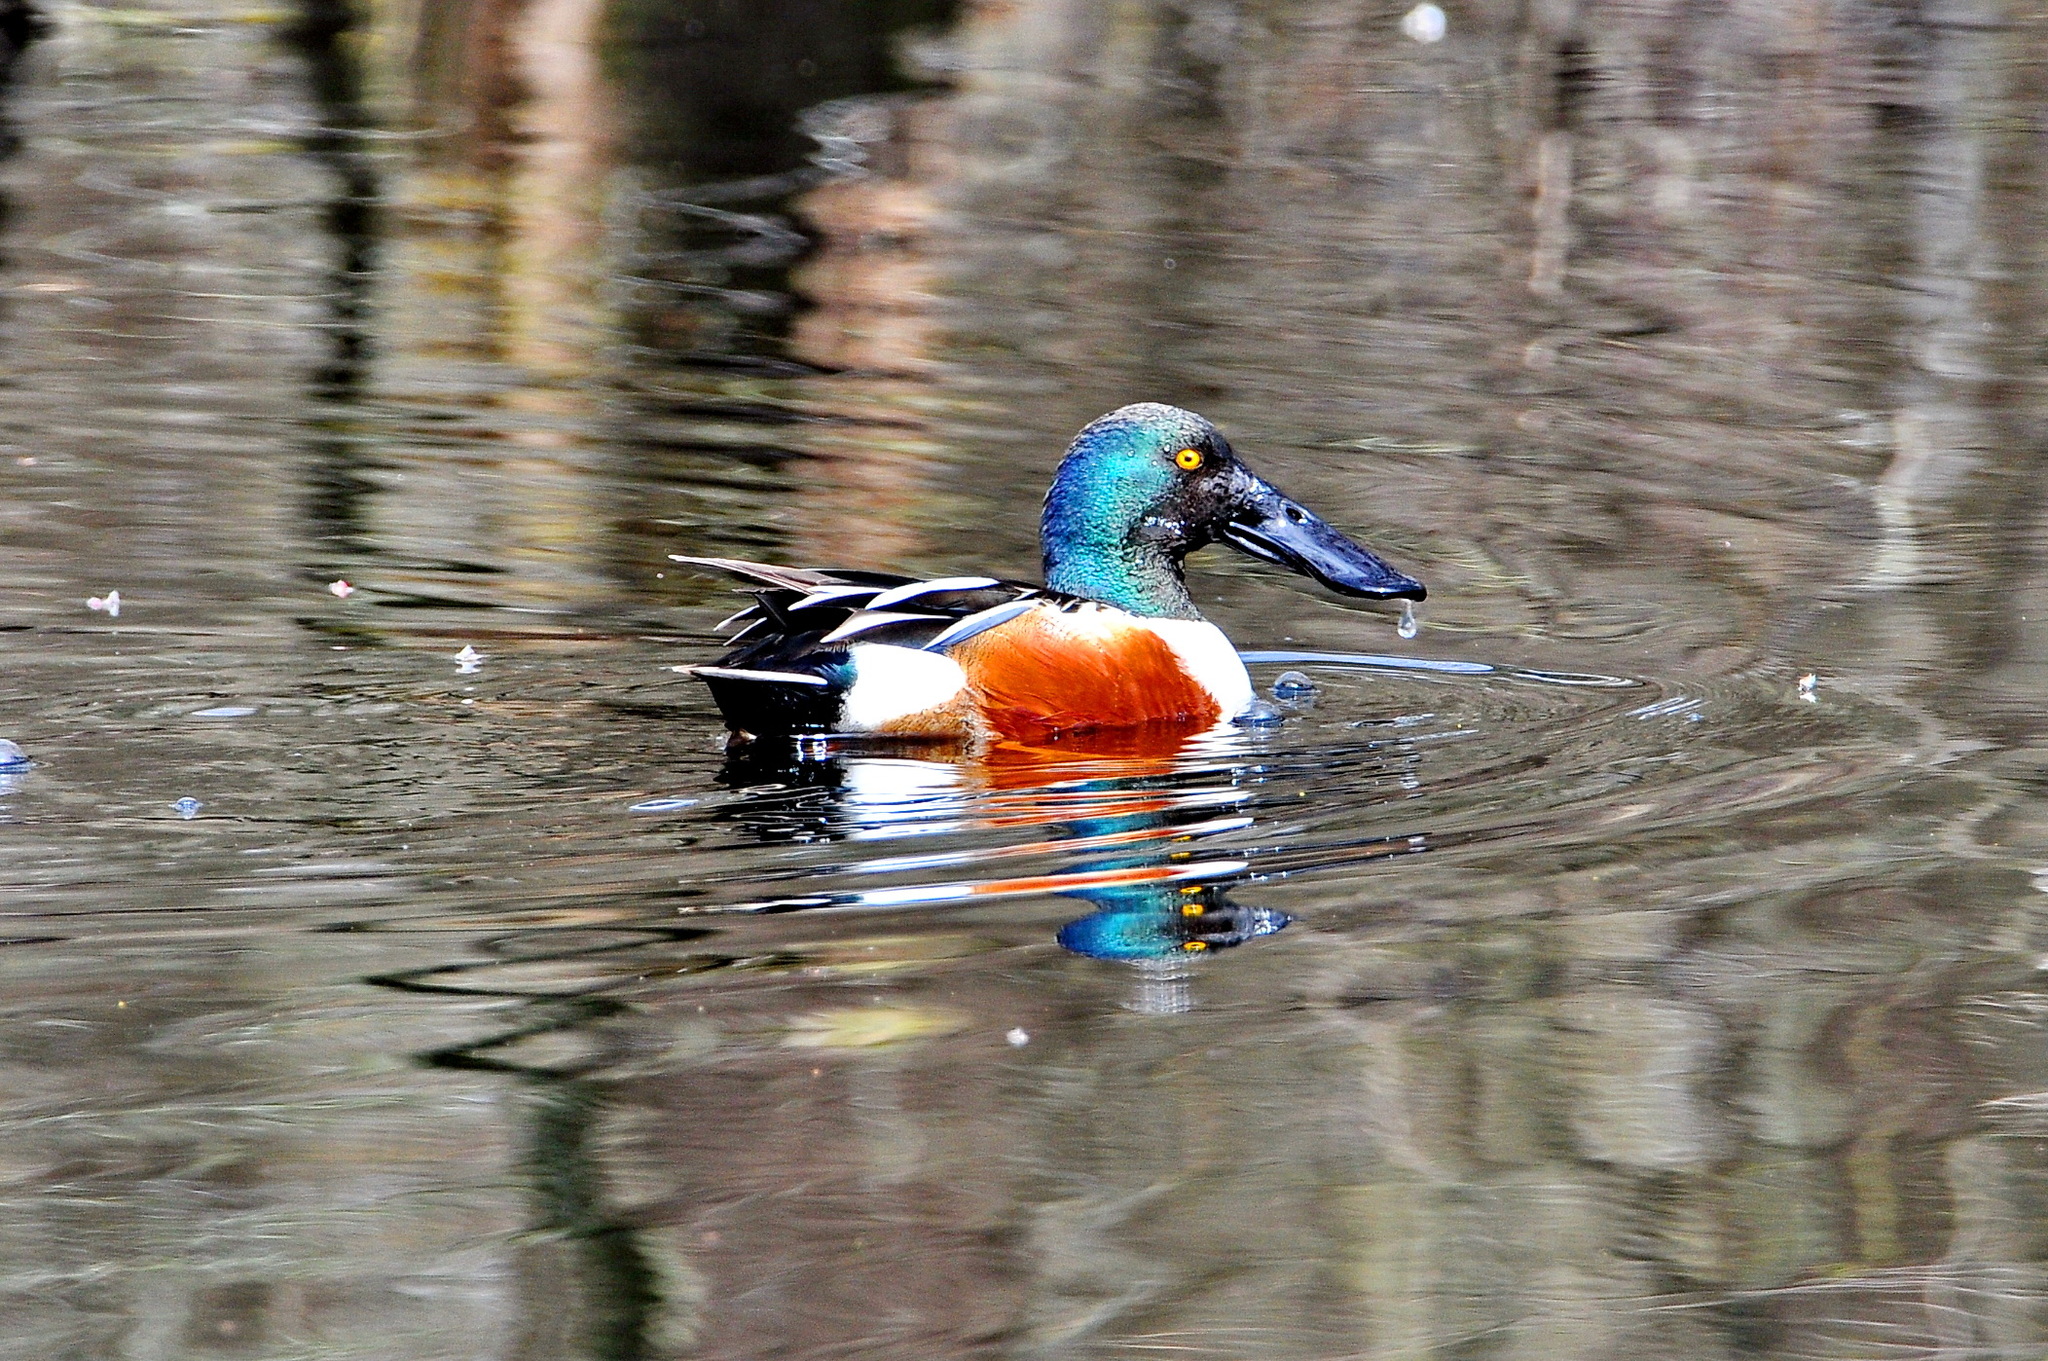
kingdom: Animalia
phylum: Chordata
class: Aves
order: Anseriformes
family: Anatidae
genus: Spatula
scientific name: Spatula clypeata
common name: Northern shoveler
